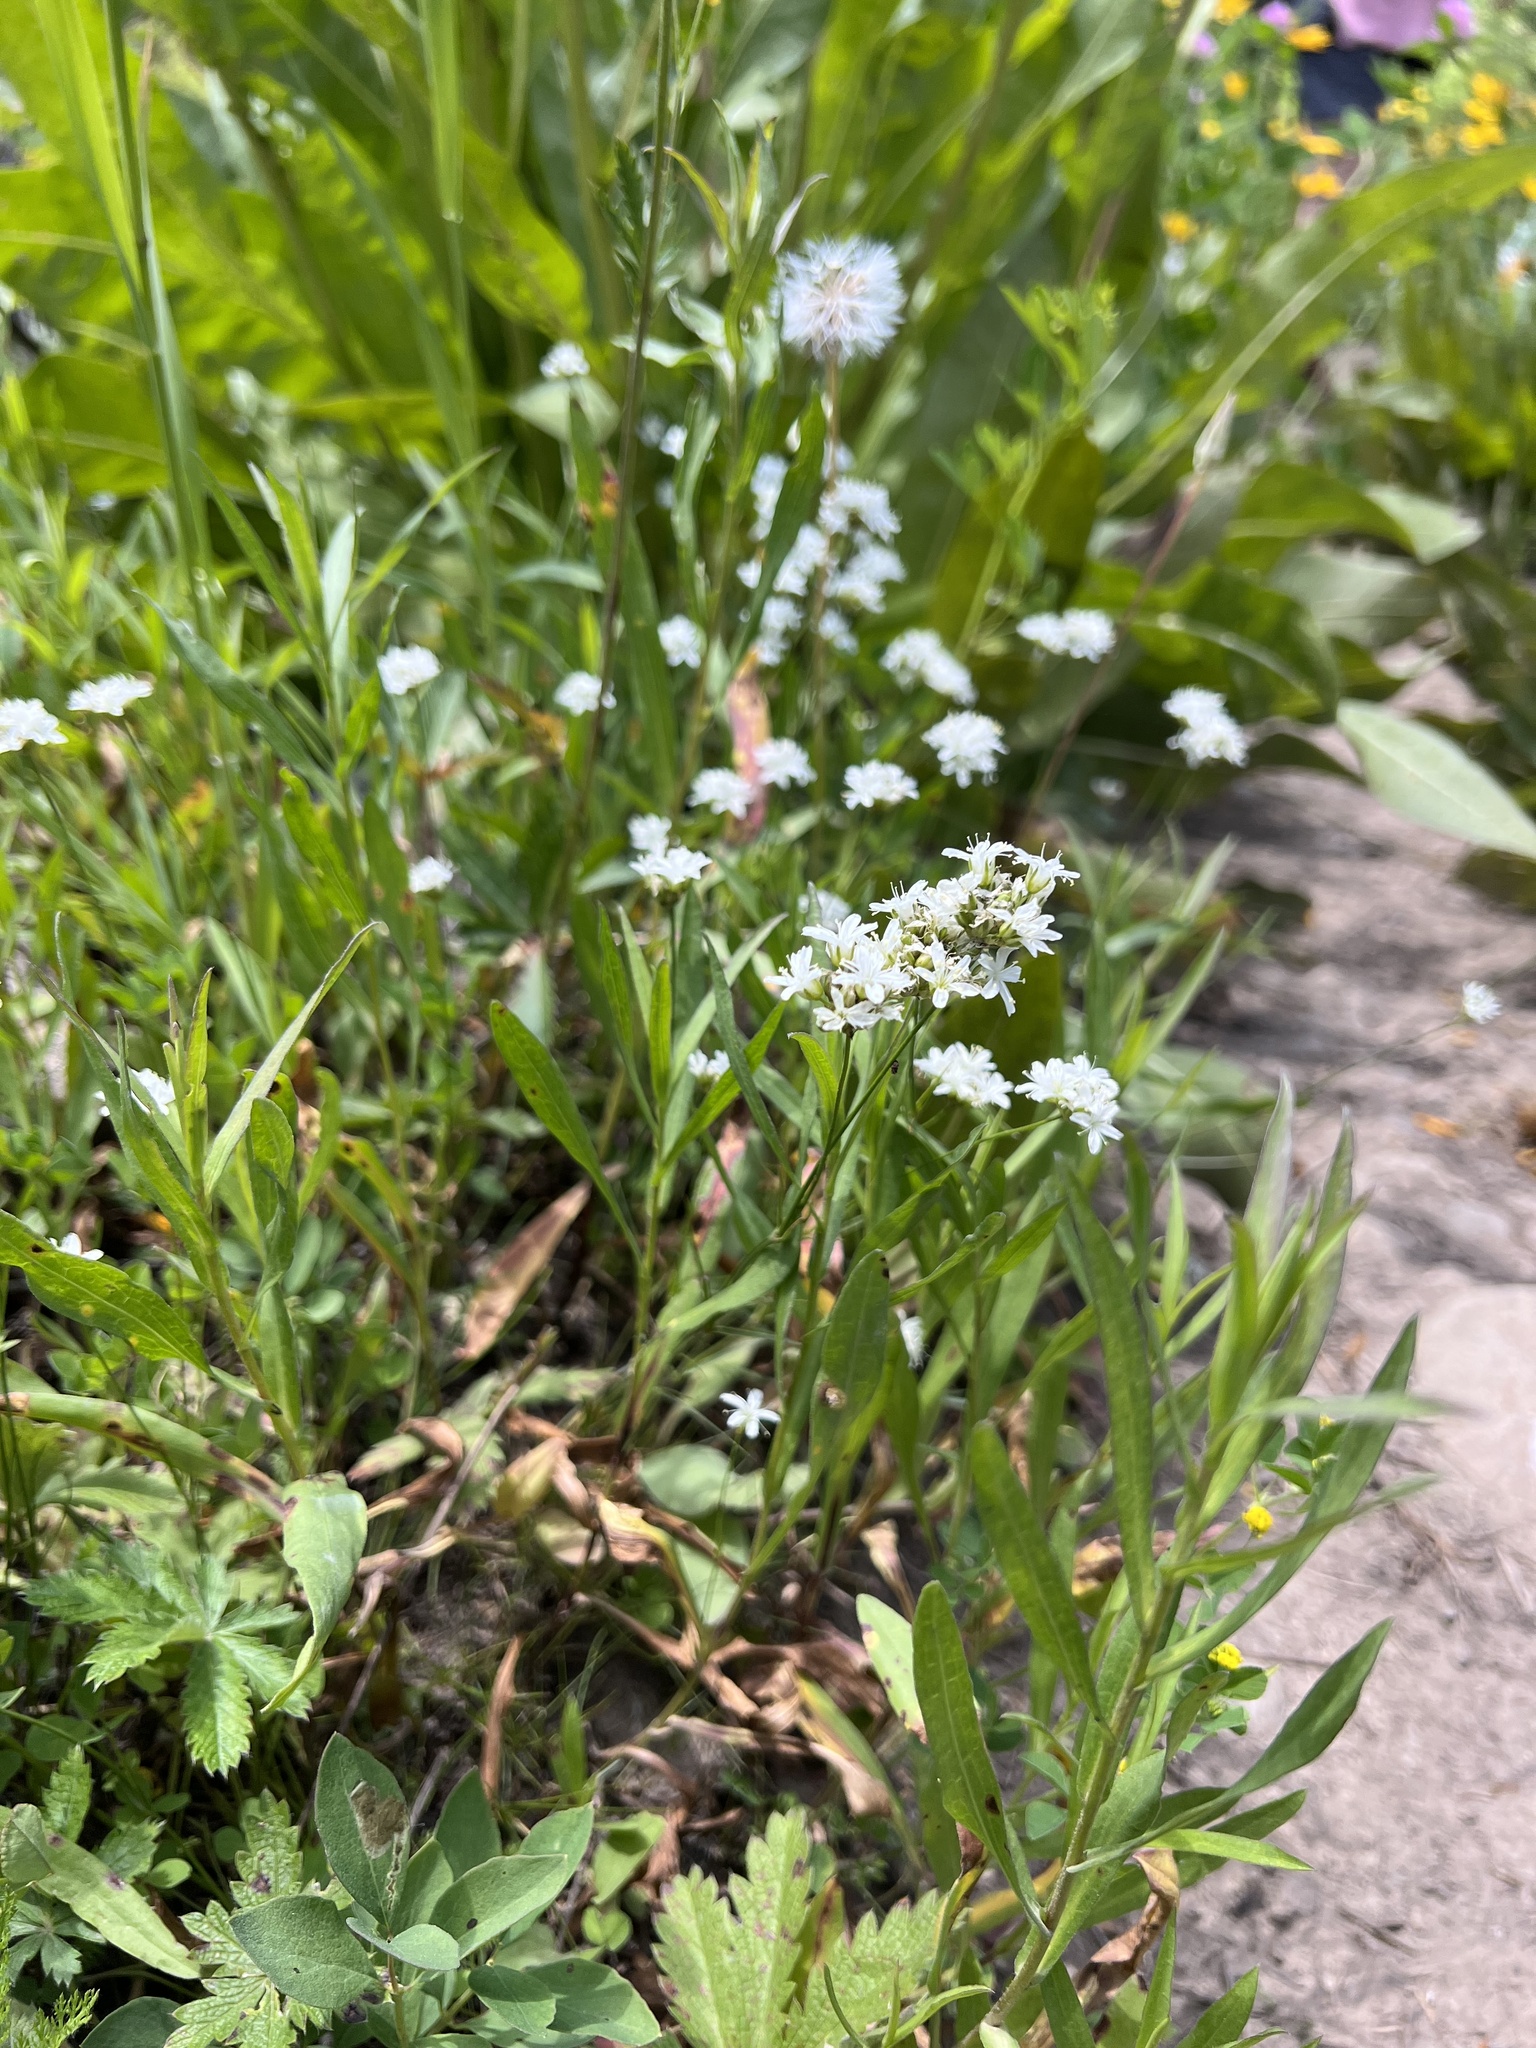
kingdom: Plantae
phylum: Tracheophyta
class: Magnoliopsida
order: Caryophyllales
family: Caryophyllaceae
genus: Eremogone
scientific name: Eremogone congesta
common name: Ballhead sandwort
